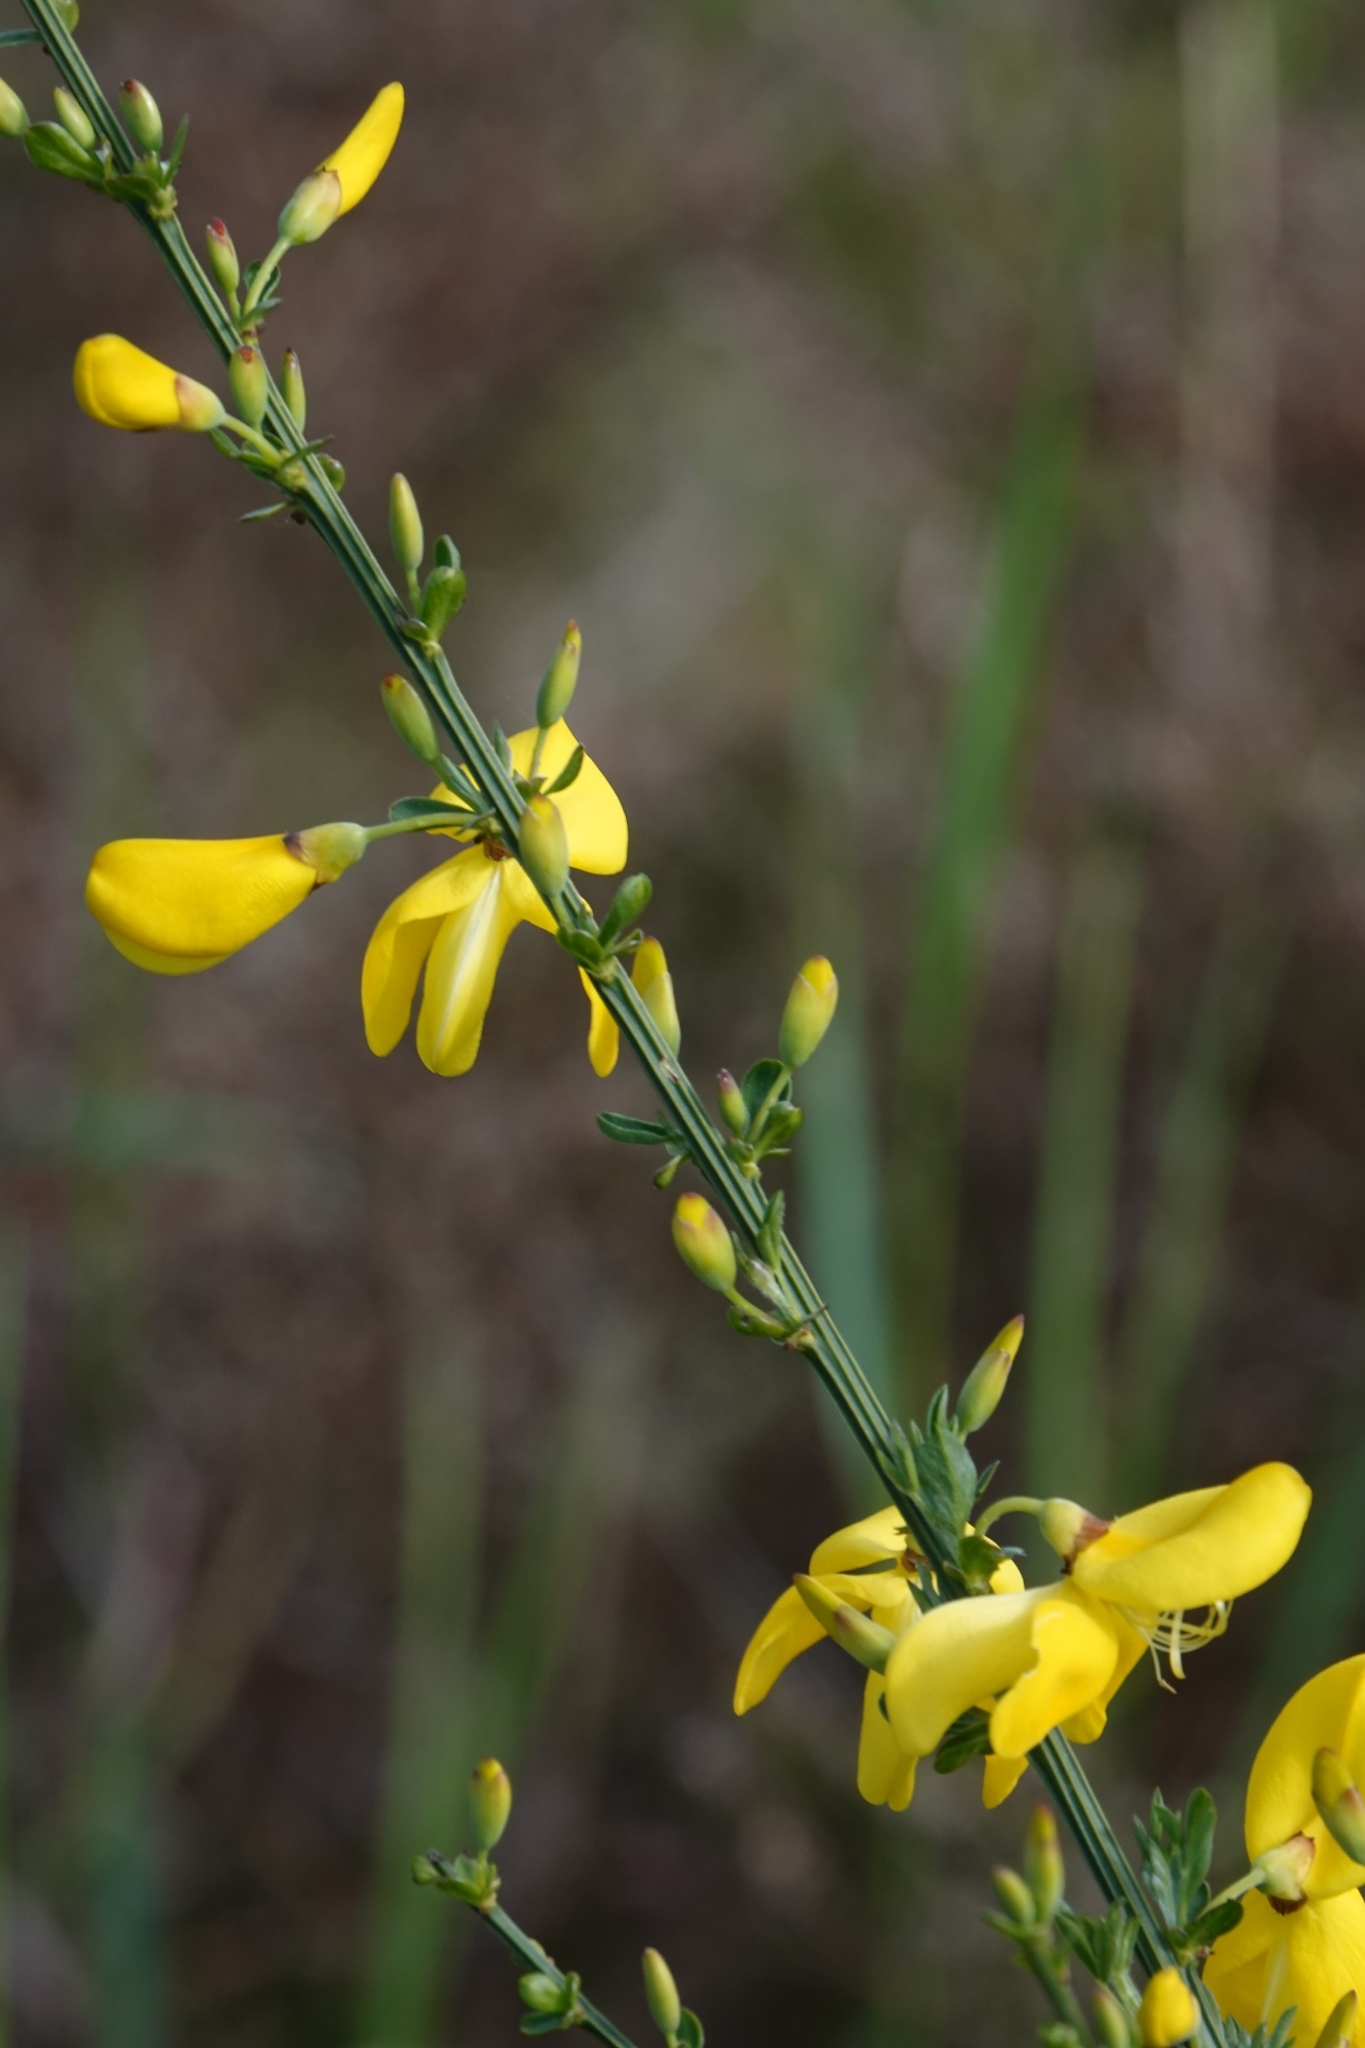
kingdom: Plantae
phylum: Tracheophyta
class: Magnoliopsida
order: Fabales
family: Fabaceae
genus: Cytisus
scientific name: Cytisus scoparius
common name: Scotch broom
